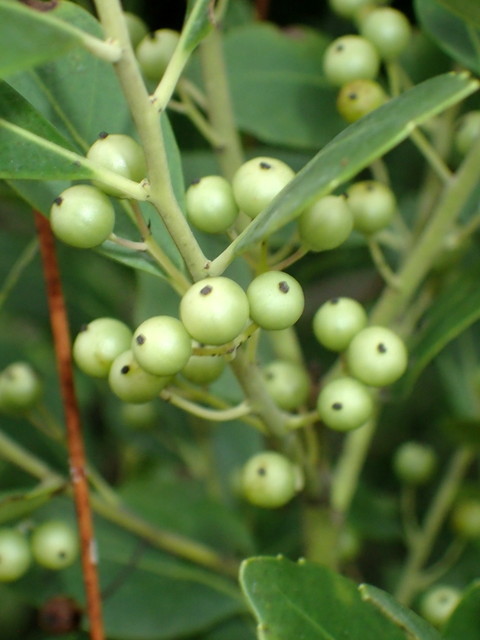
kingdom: Plantae
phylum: Tracheophyta
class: Magnoliopsida
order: Aquifoliales
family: Aquifoliaceae
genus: Ilex
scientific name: Ilex glabra
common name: Bitter gallberry
